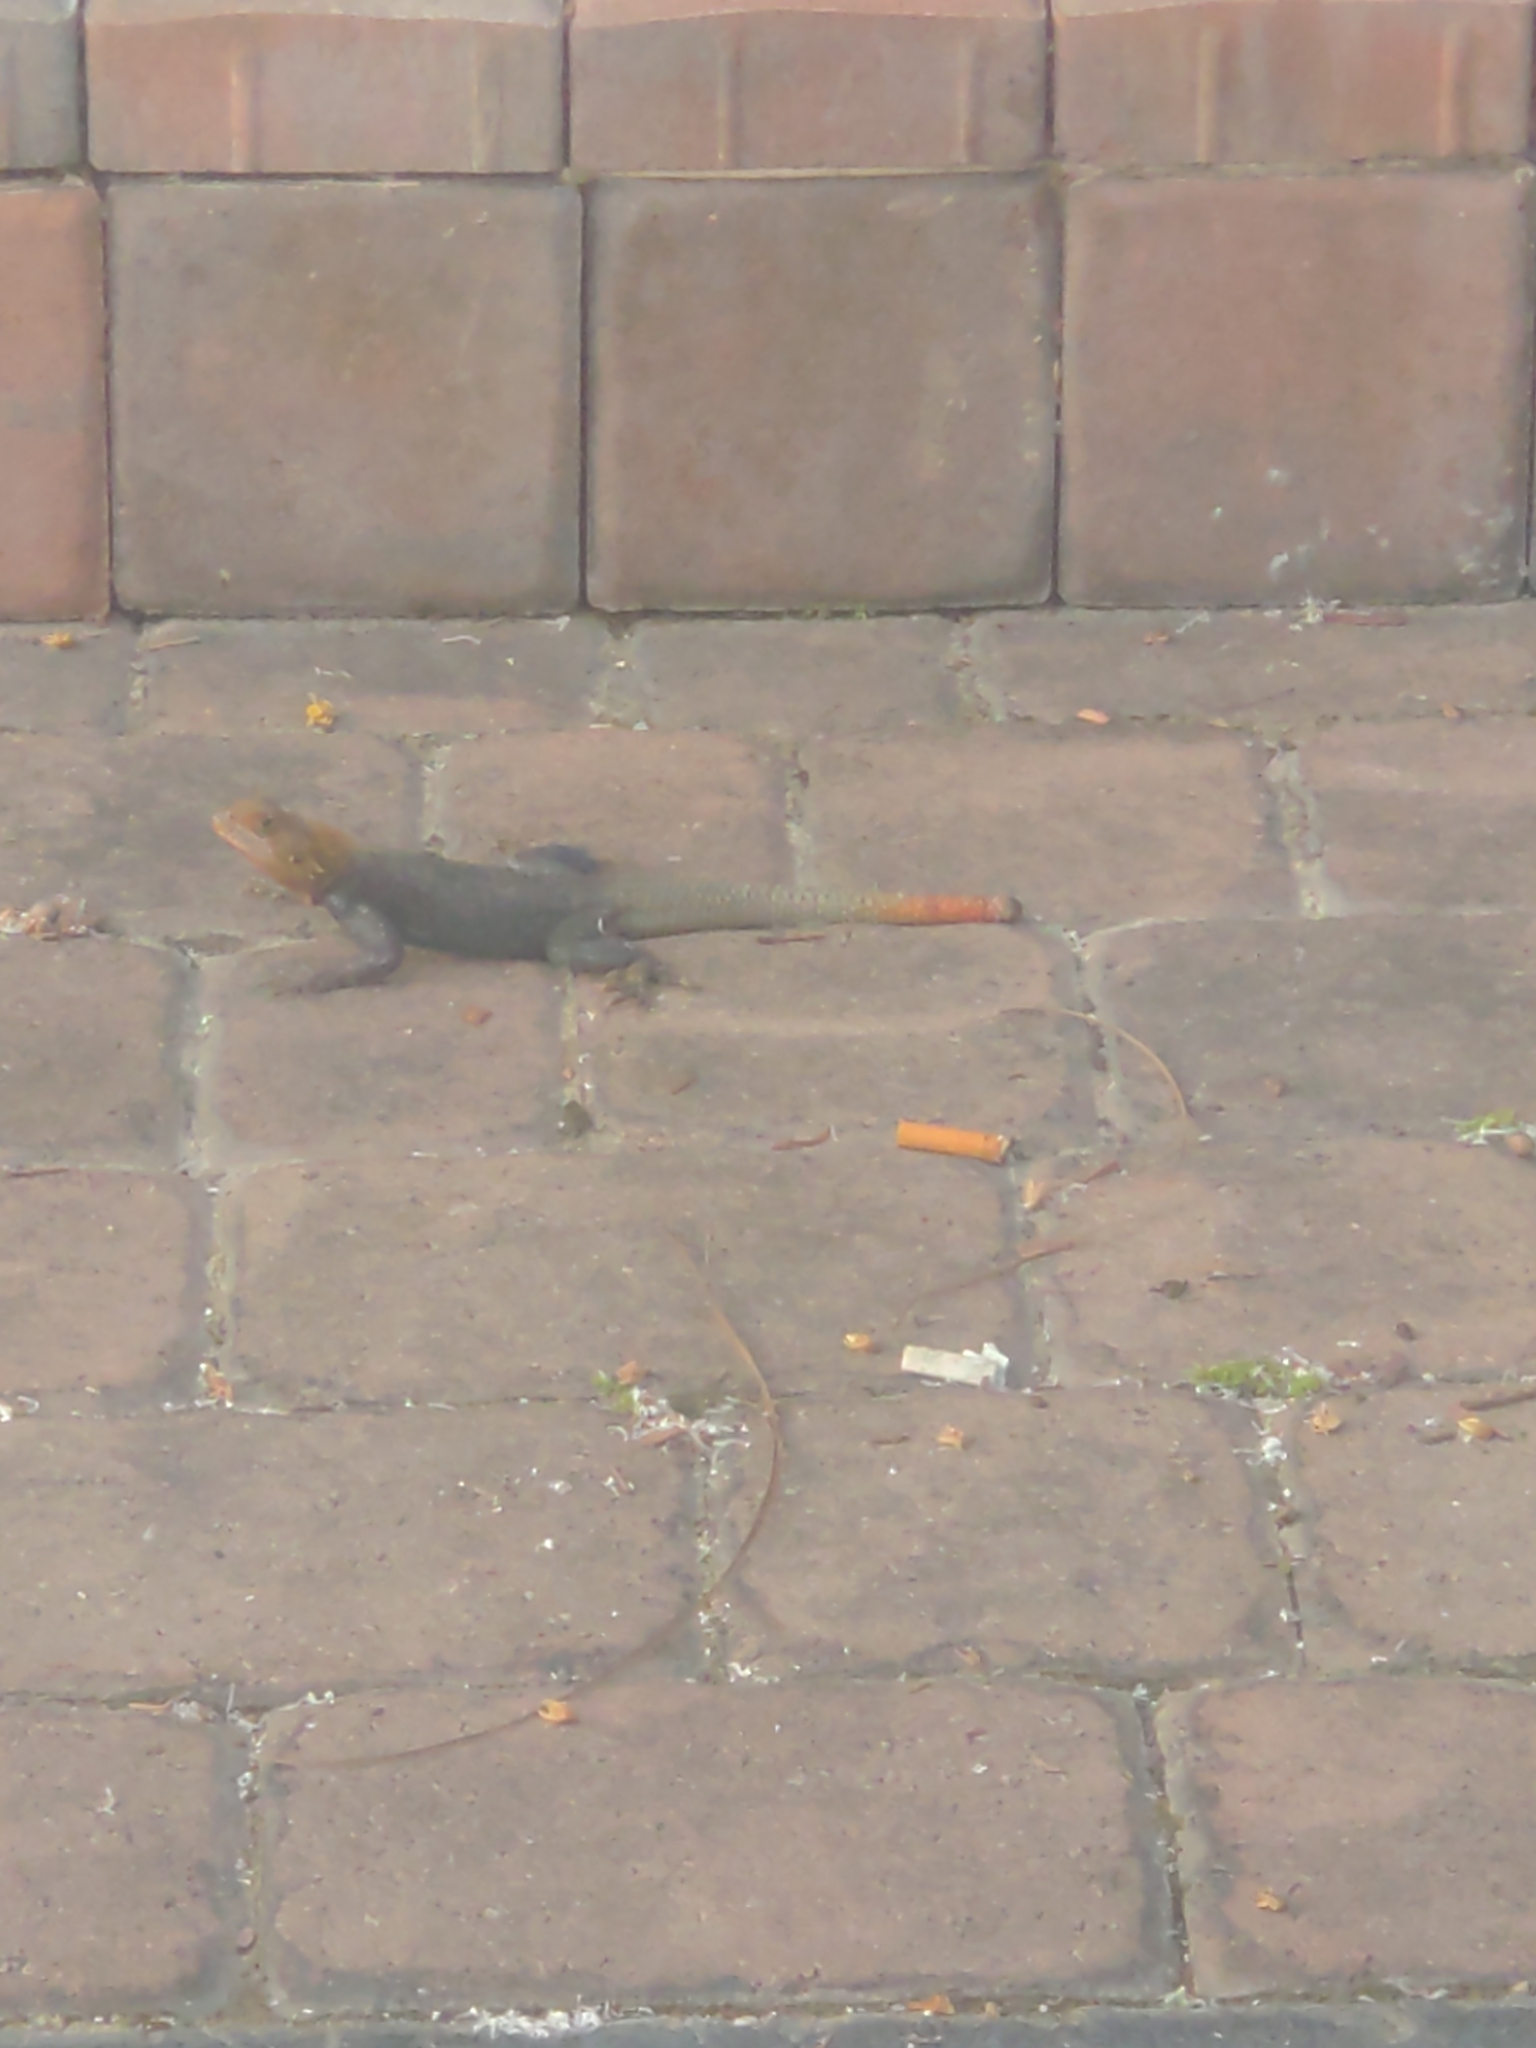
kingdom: Animalia
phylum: Chordata
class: Squamata
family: Agamidae
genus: Agama
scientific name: Agama picticauda
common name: Red-headed agama
